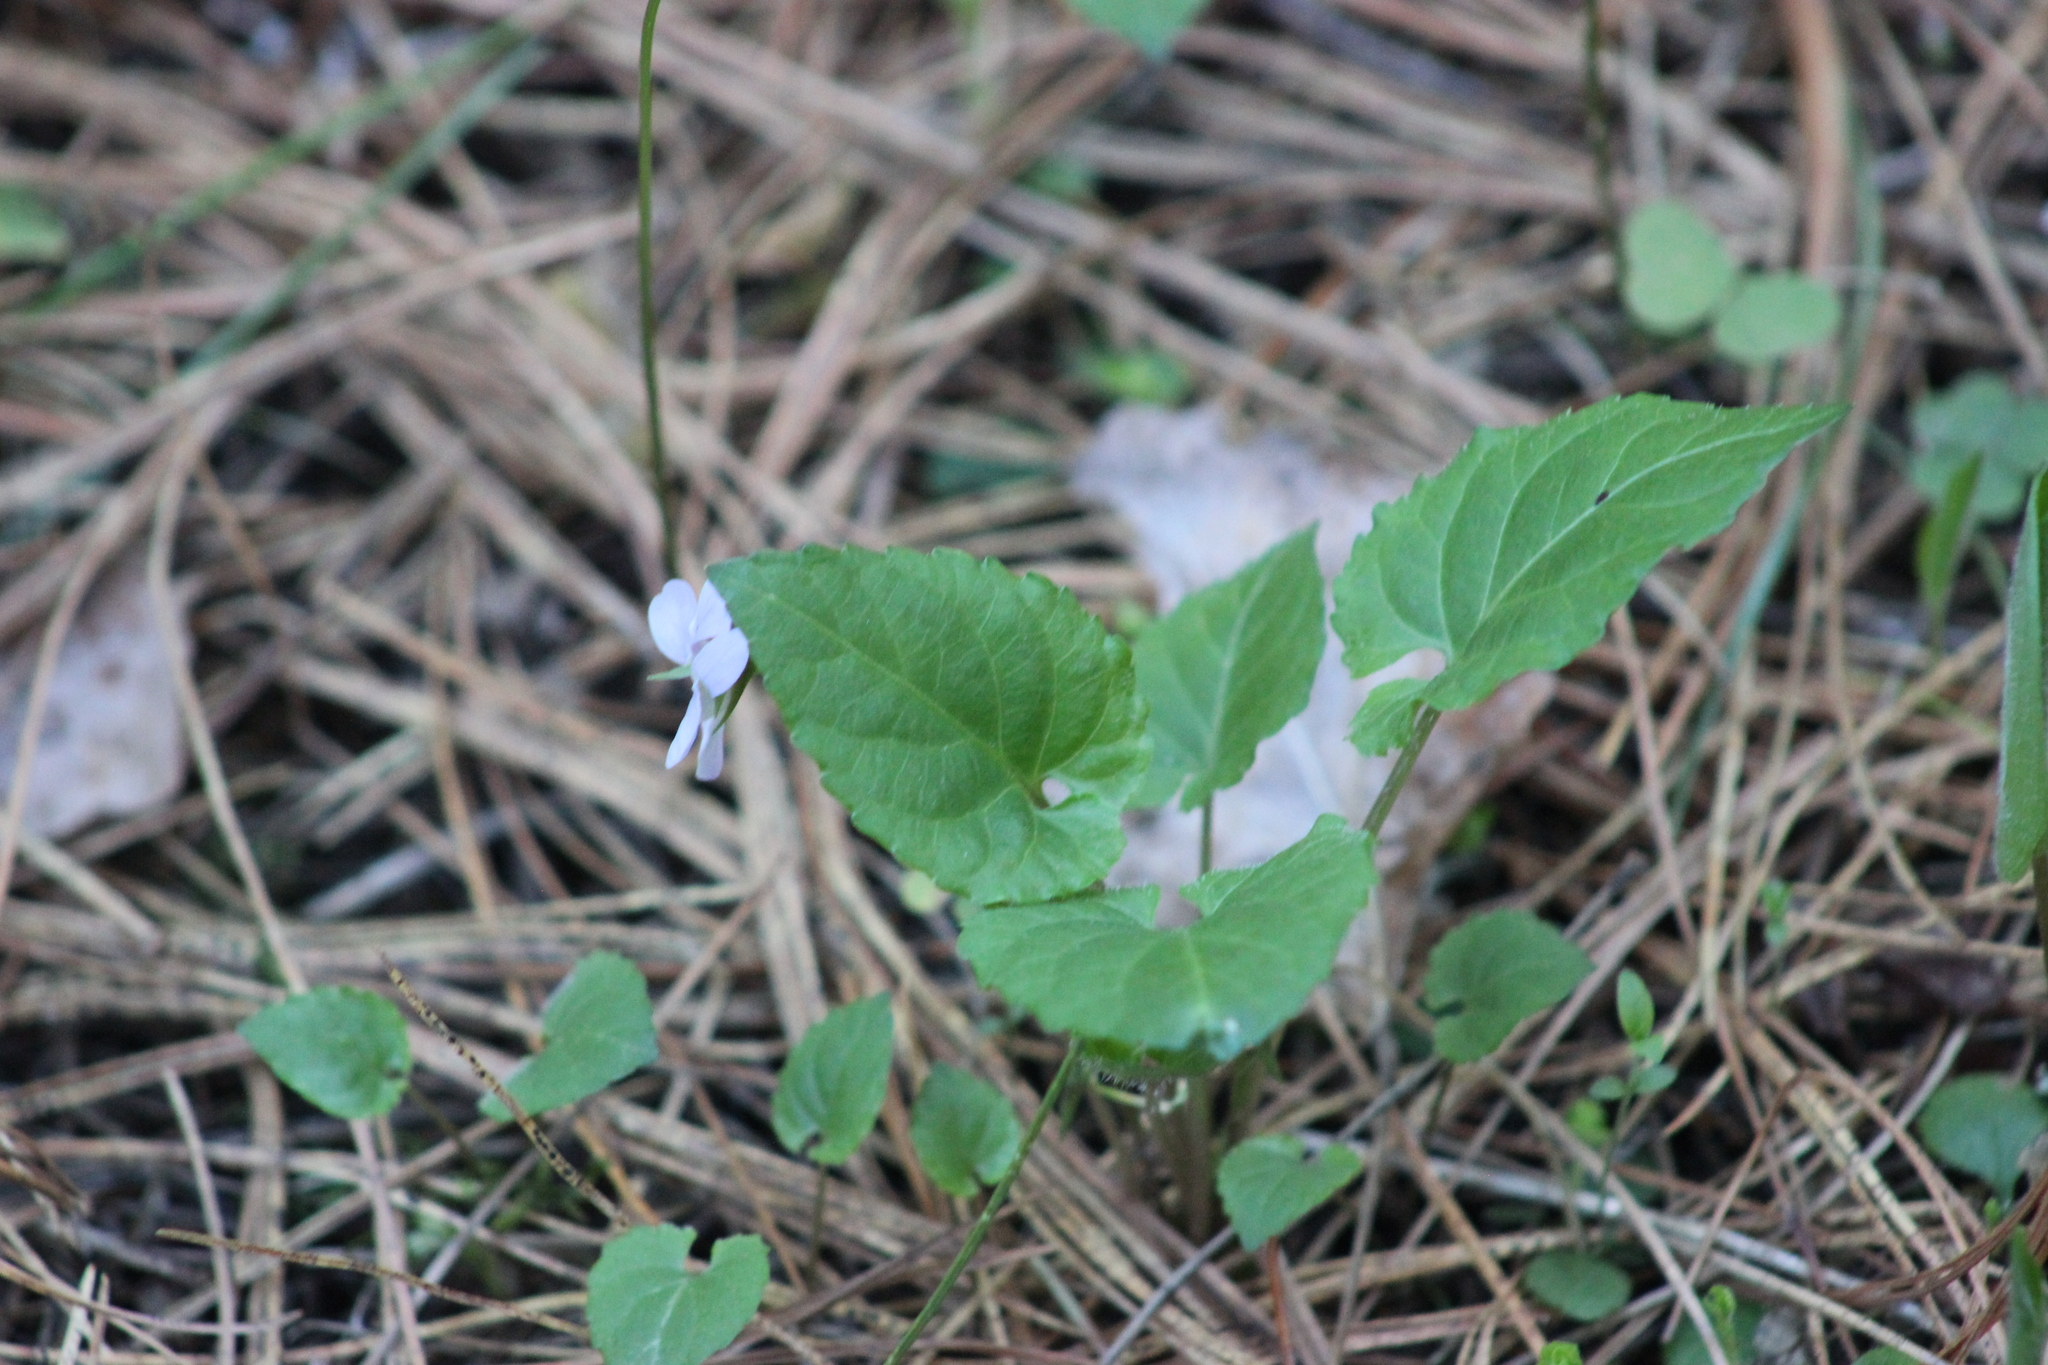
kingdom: Plantae
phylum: Tracheophyta
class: Magnoliopsida
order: Malpighiales
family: Violaceae
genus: Viola
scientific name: Viola selkirkii
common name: Selkirk's violet
